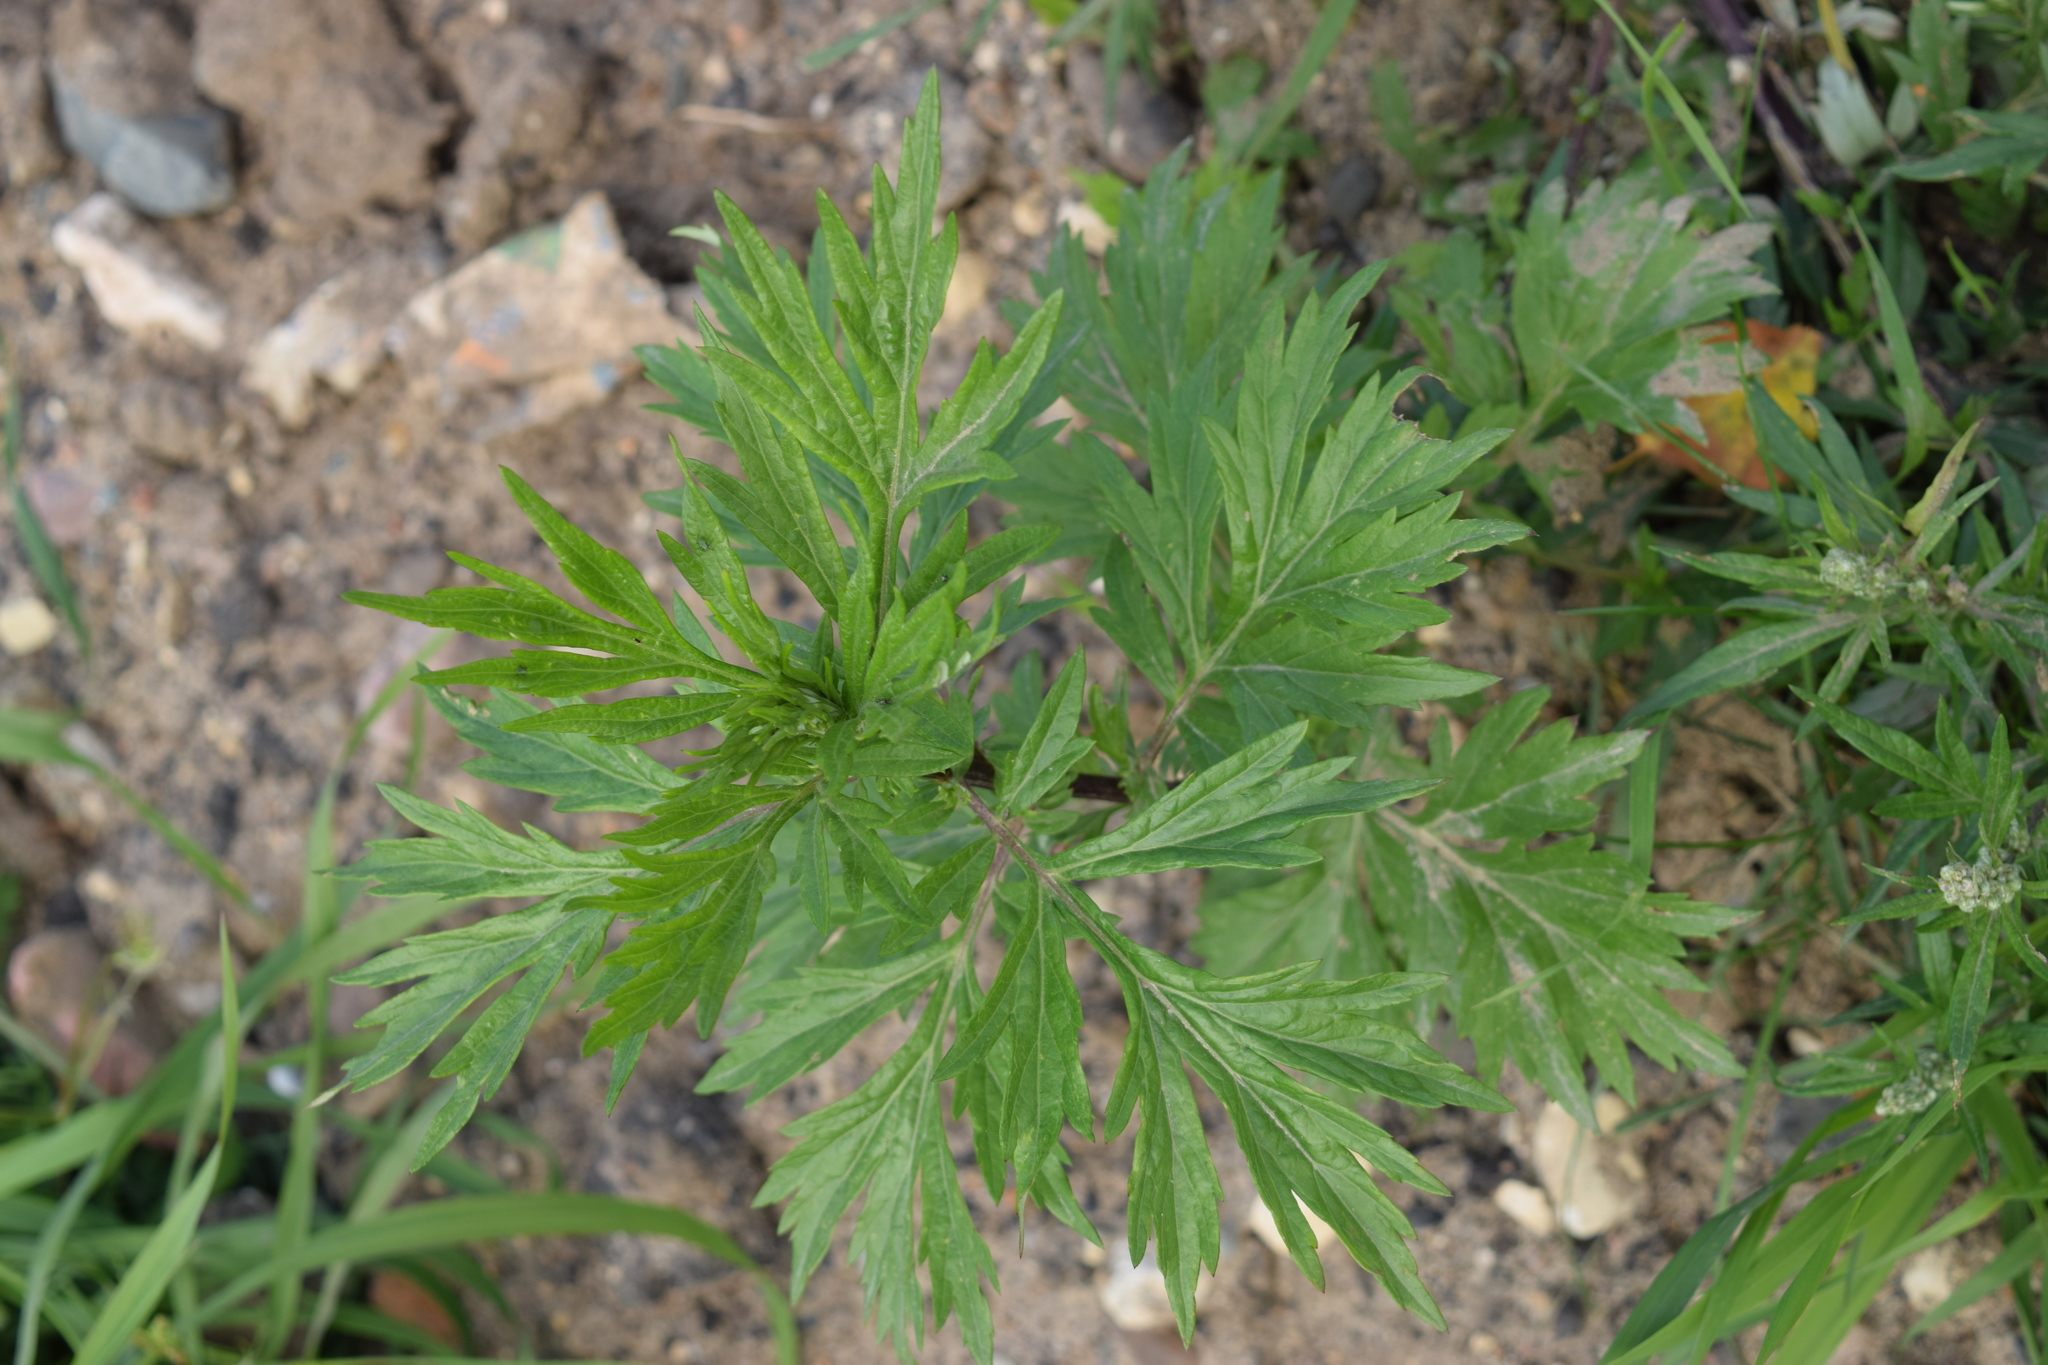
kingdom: Plantae
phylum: Tracheophyta
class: Magnoliopsida
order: Asterales
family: Asteraceae
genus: Artemisia
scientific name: Artemisia vulgaris
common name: Mugwort
